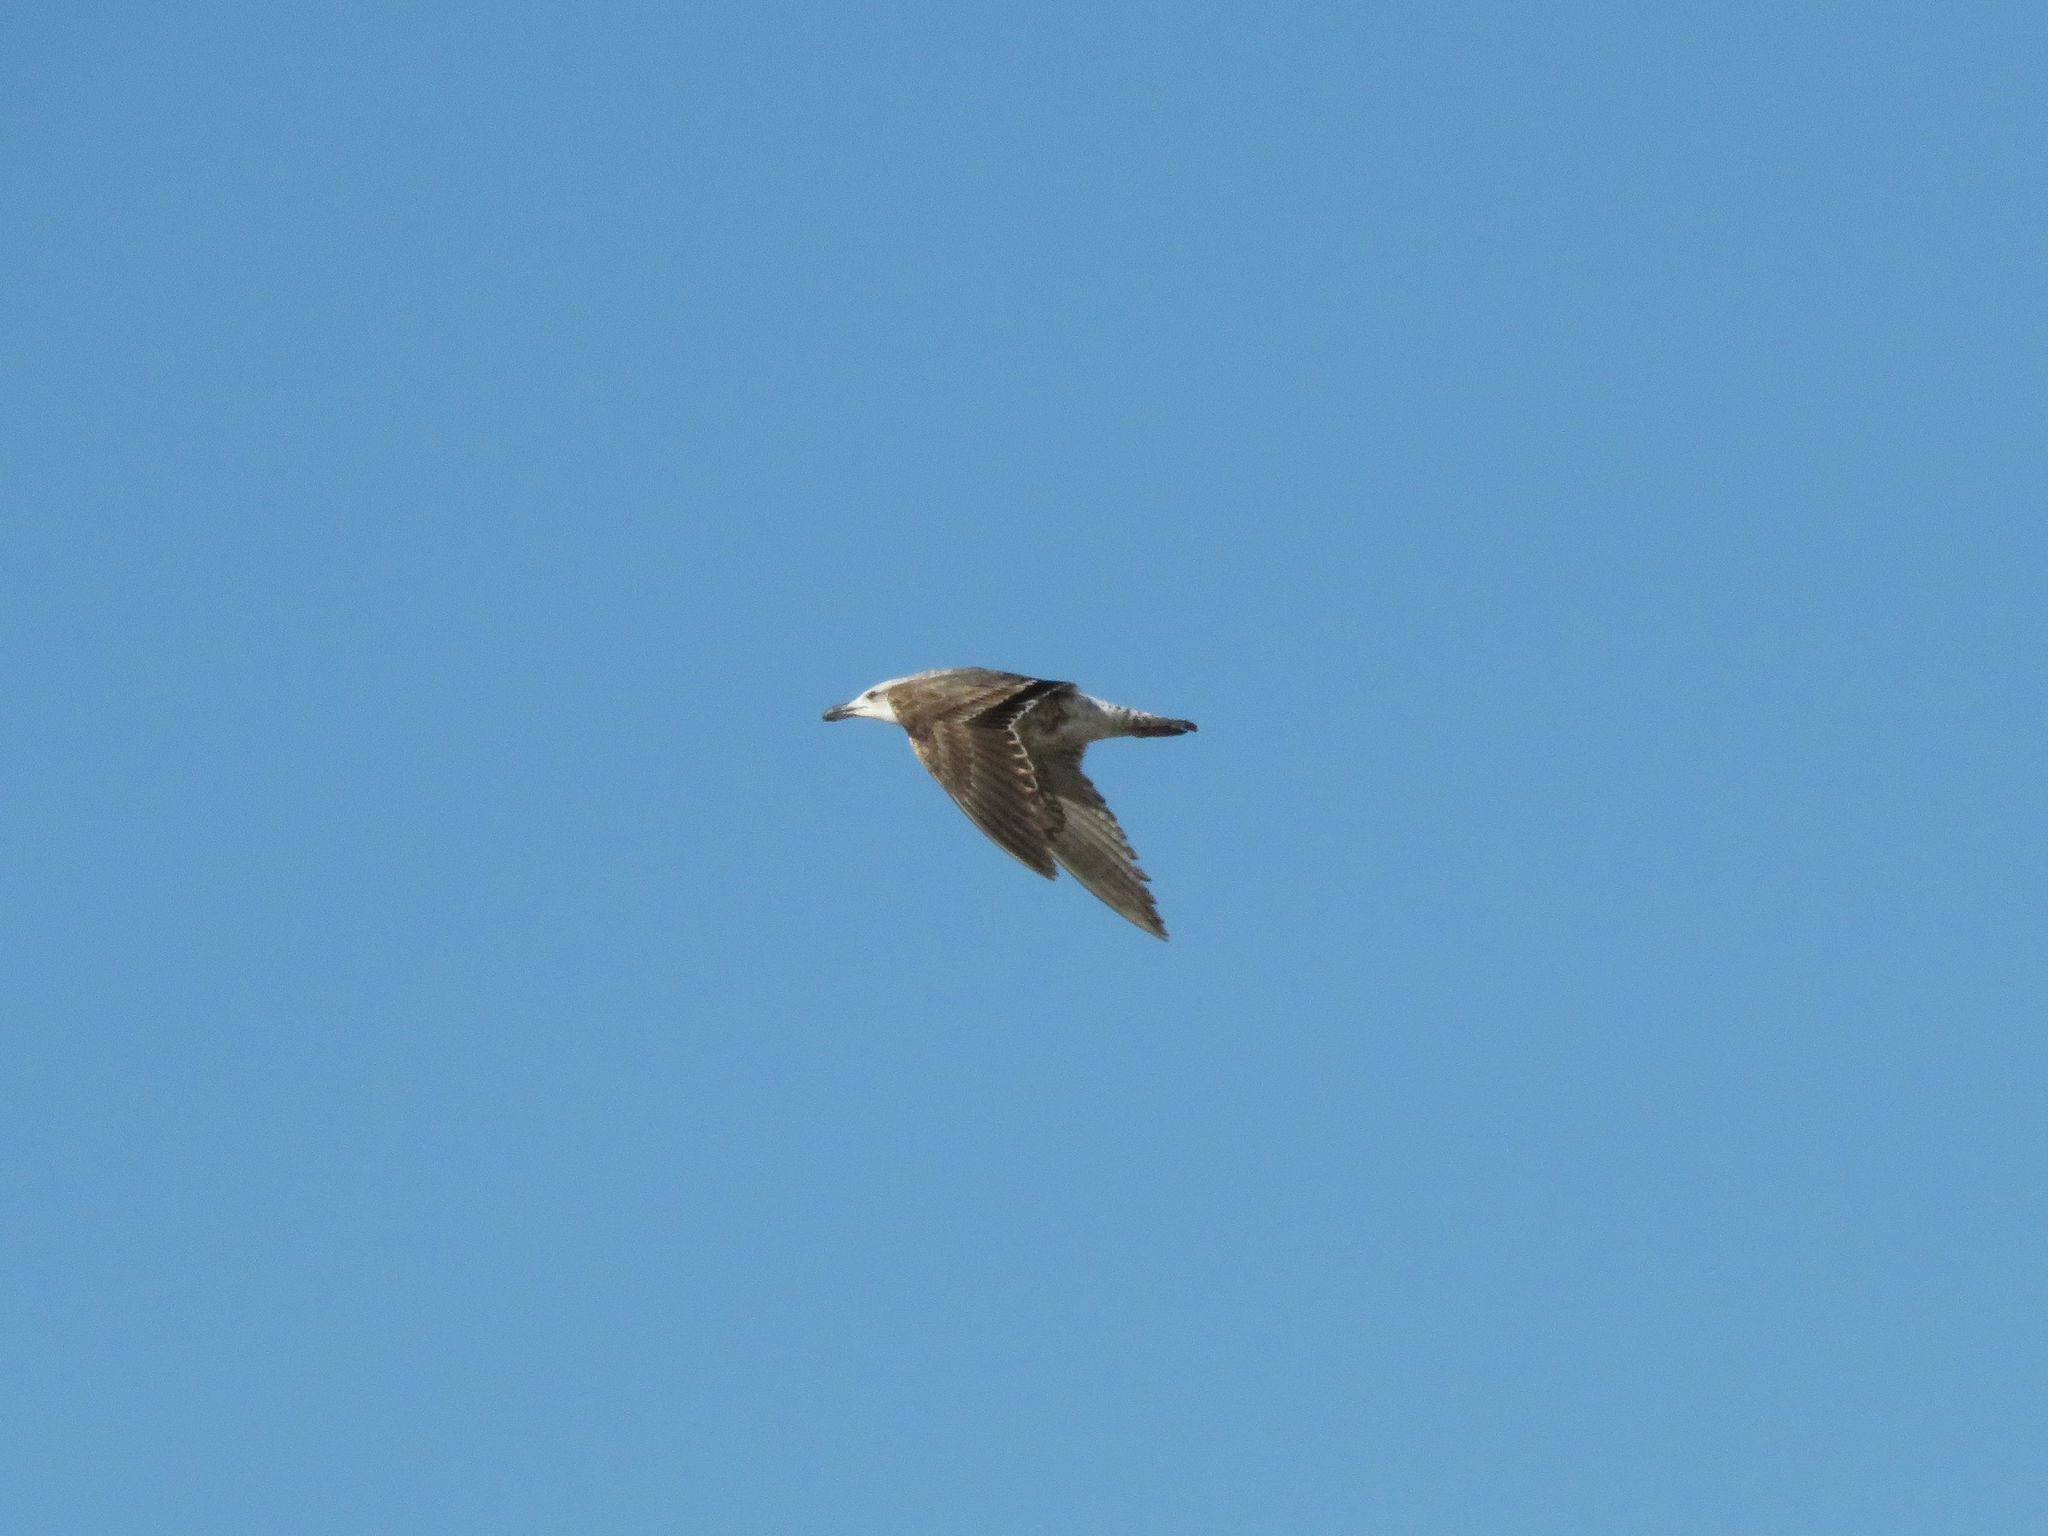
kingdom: Animalia
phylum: Chordata
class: Aves
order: Charadriiformes
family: Laridae
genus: Larus
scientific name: Larus dominicanus
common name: Kelp gull
